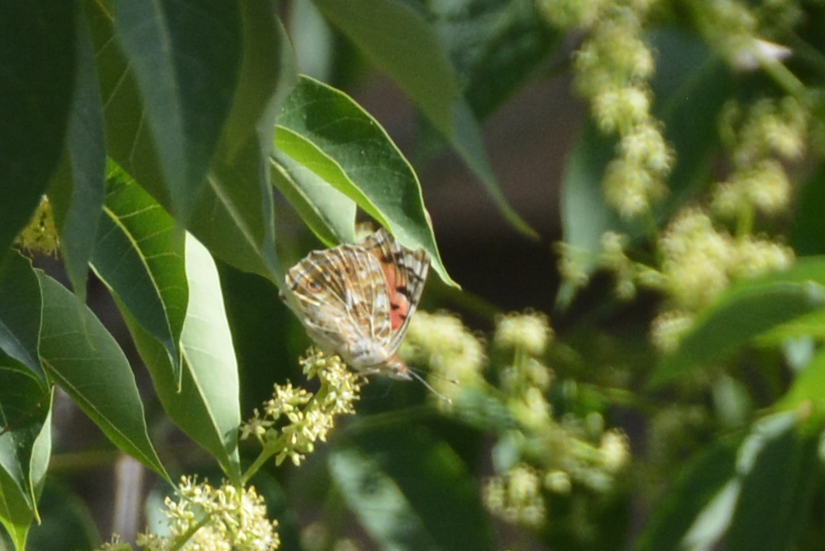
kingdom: Animalia
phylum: Arthropoda
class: Insecta
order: Lepidoptera
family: Nymphalidae
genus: Vanessa
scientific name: Vanessa cardui
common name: Painted lady
